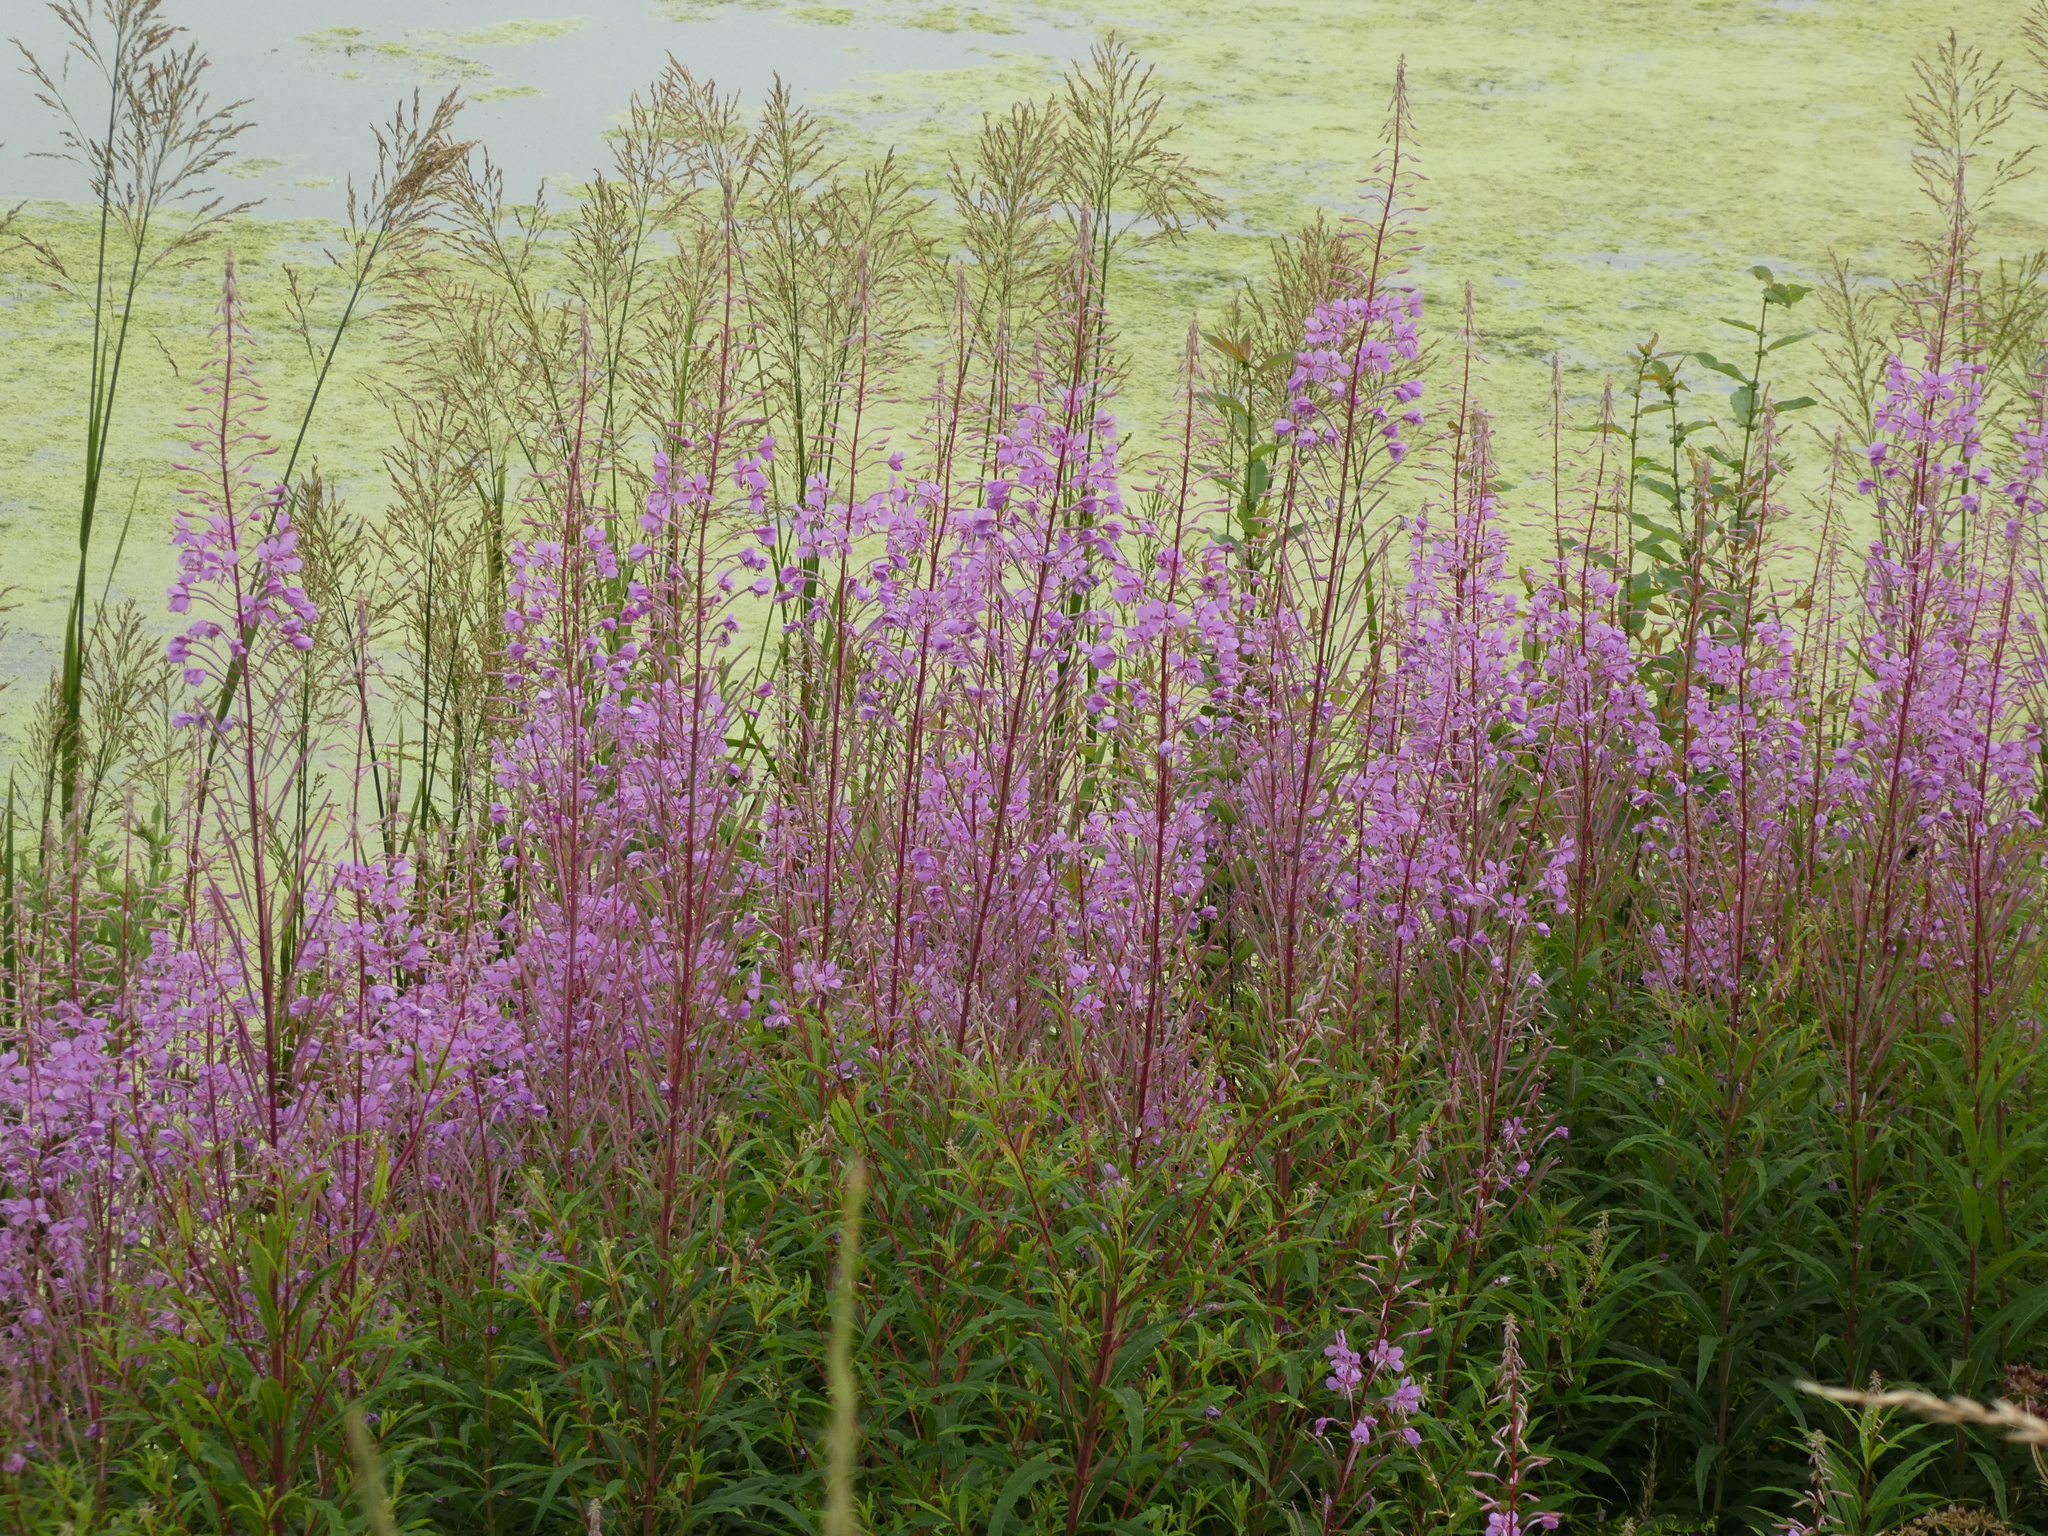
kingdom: Plantae
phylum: Tracheophyta
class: Magnoliopsida
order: Myrtales
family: Onagraceae
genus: Chamaenerion
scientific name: Chamaenerion angustifolium
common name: Fireweed
